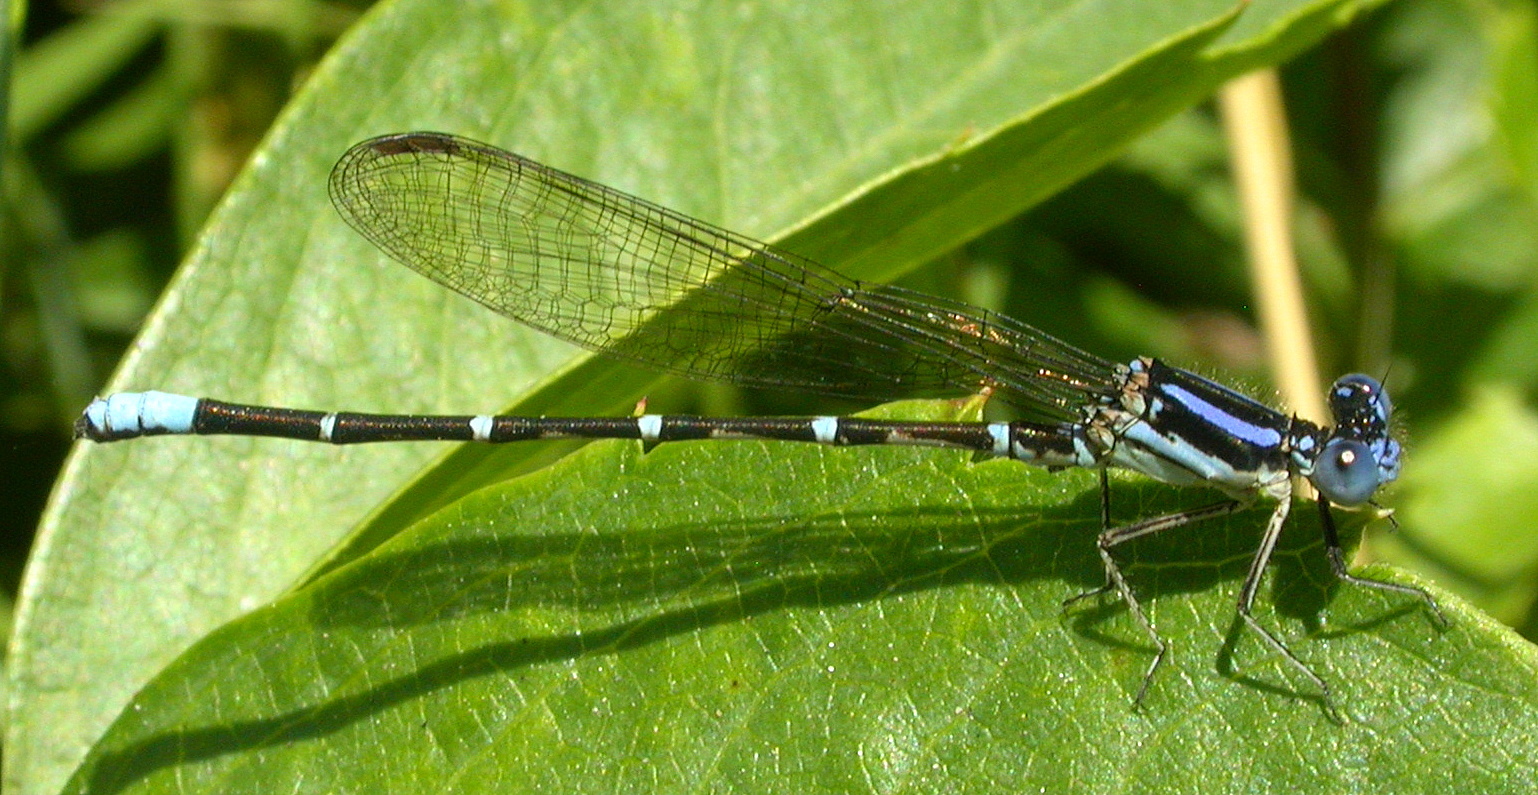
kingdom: Animalia
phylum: Arthropoda
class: Insecta
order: Odonata
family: Coenagrionidae
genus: Argia
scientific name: Argia sedula
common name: Blue-ringed dancer
